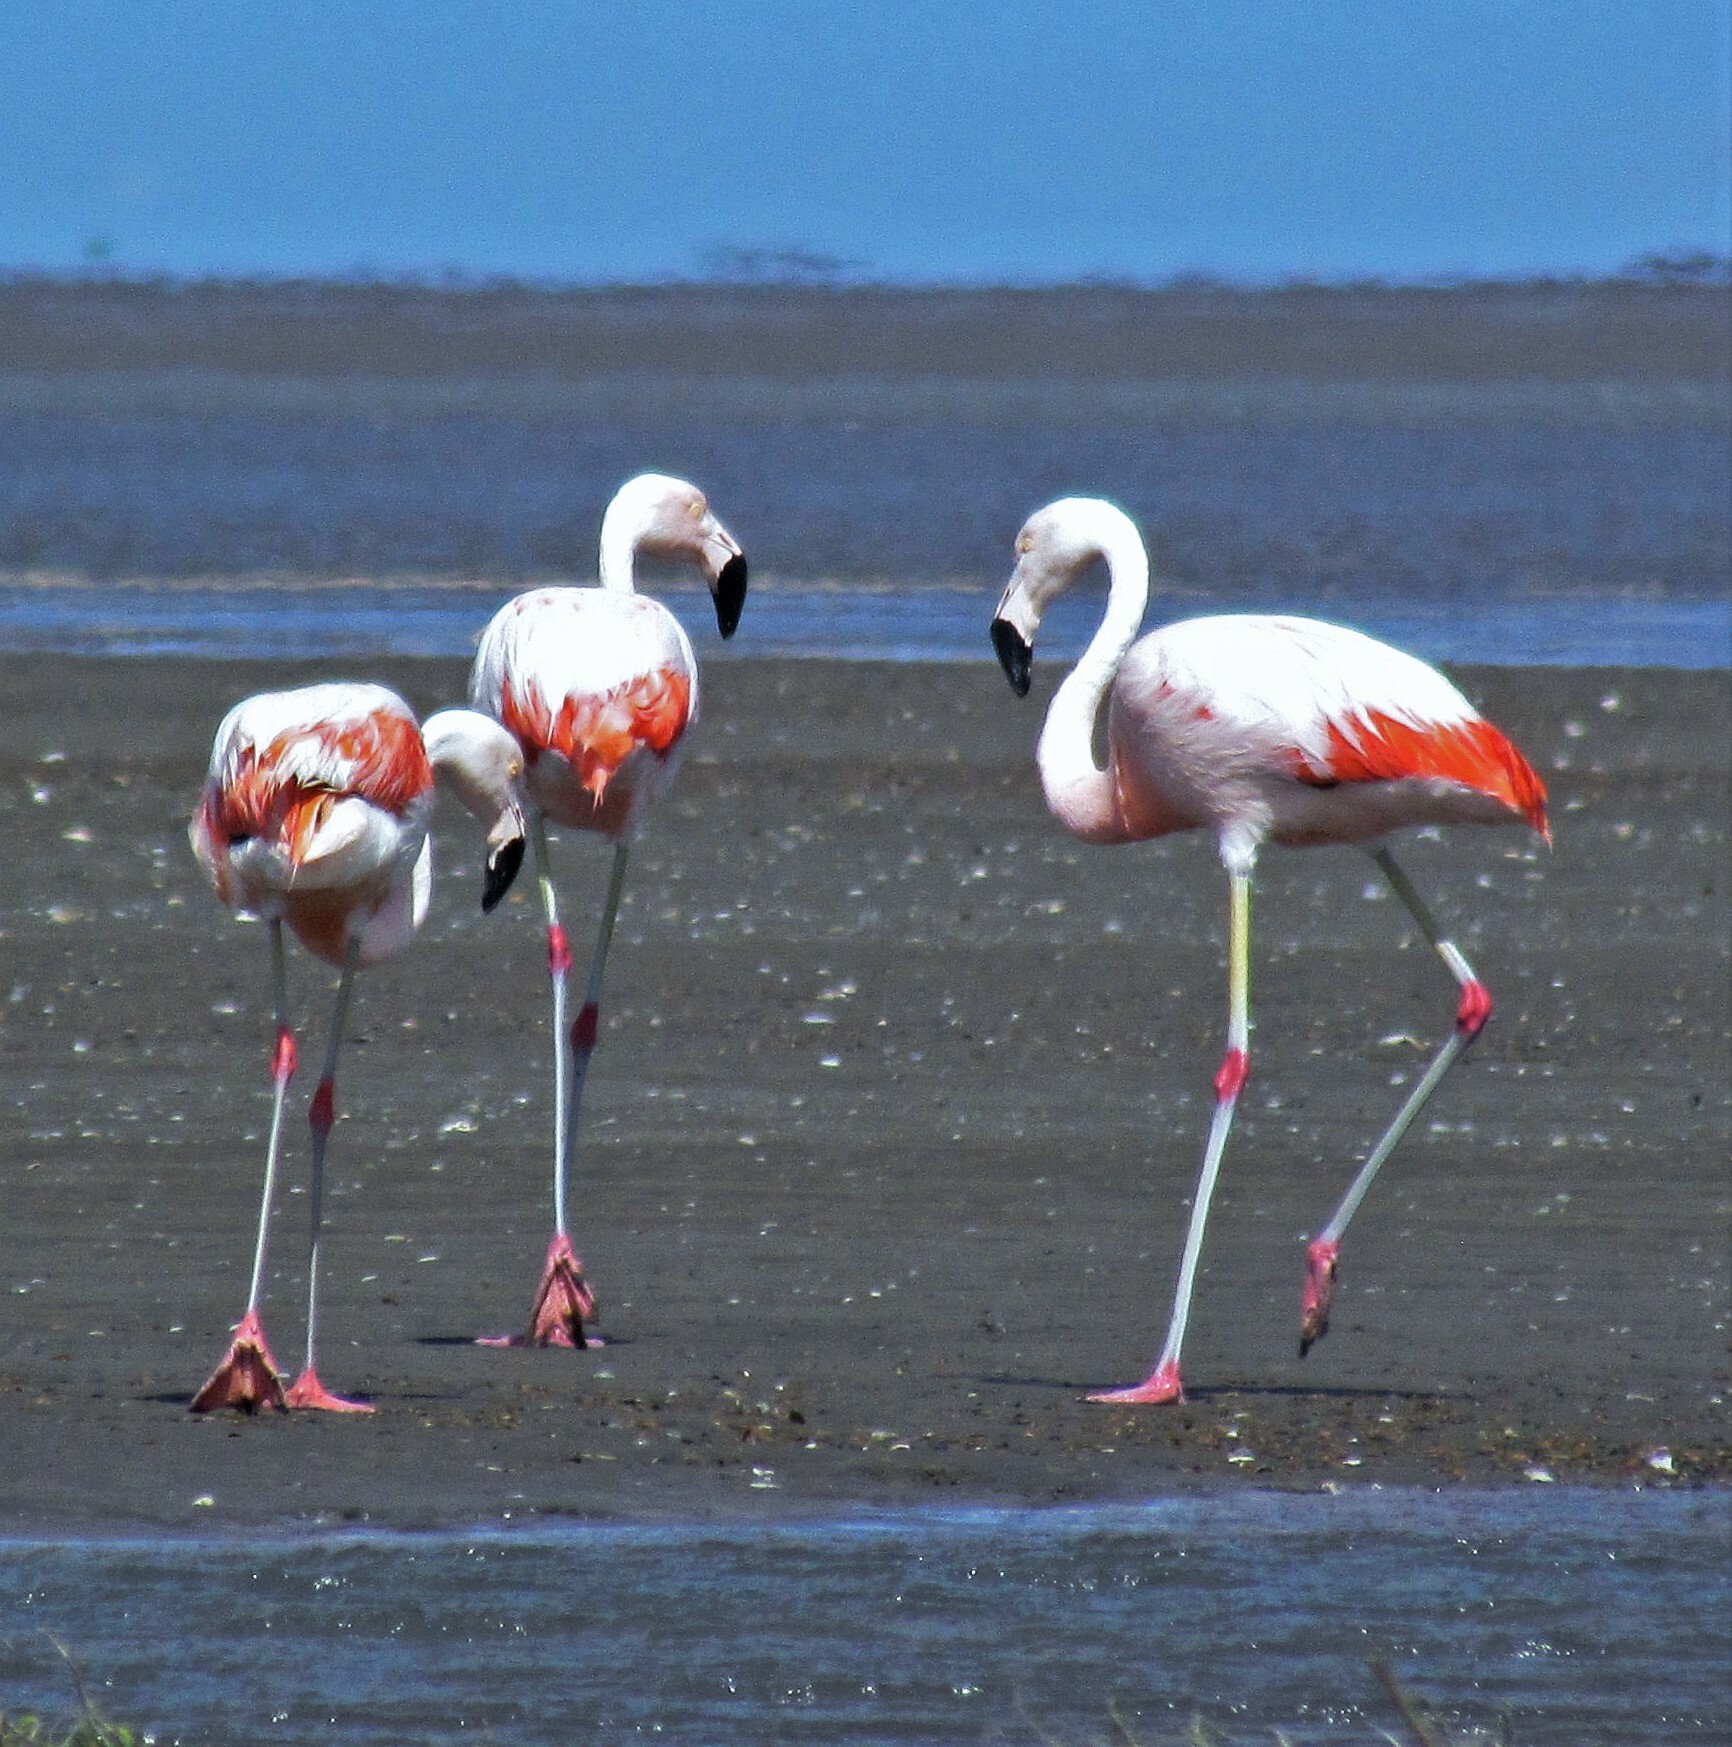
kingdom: Animalia
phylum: Chordata
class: Aves
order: Phoenicopteriformes
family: Phoenicopteridae
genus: Phoenicopterus
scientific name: Phoenicopterus chilensis
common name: Chilean flamingo
